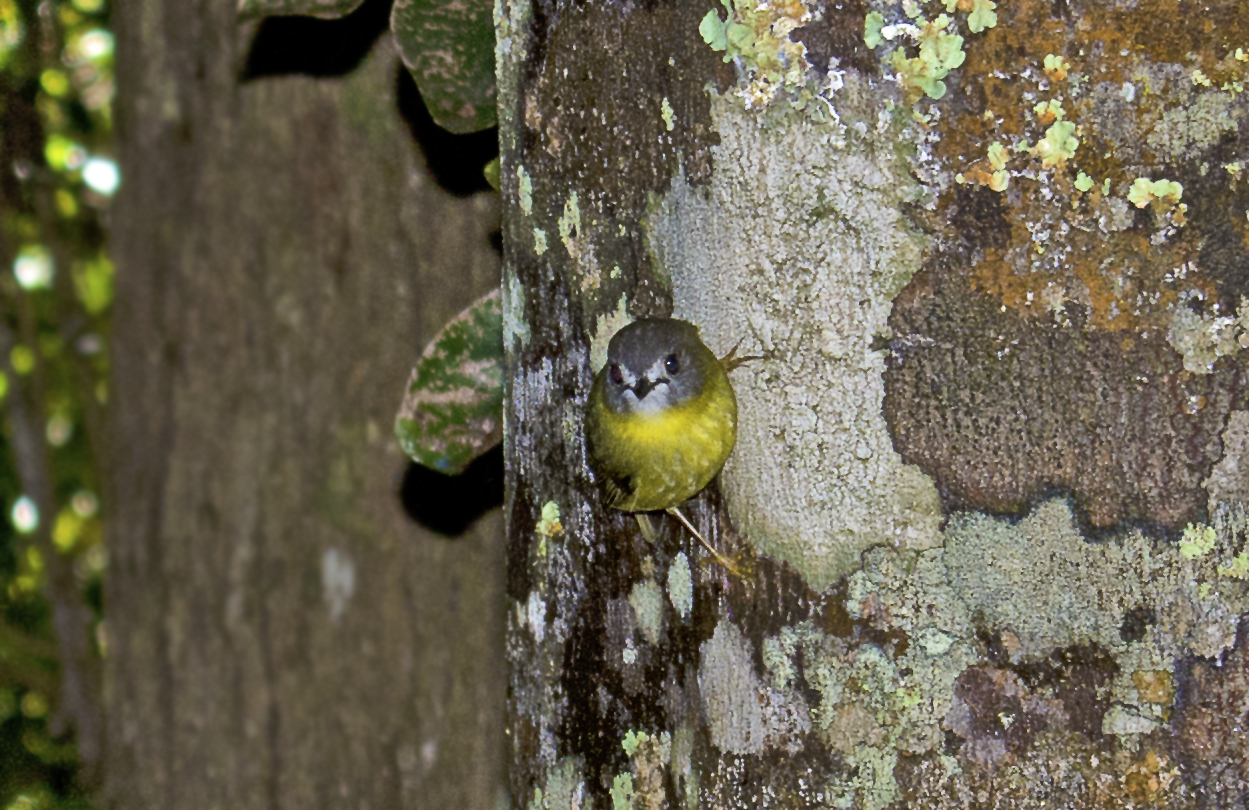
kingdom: Animalia
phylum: Chordata
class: Aves
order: Passeriformes
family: Petroicidae
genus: Eopsaltria
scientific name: Eopsaltria
